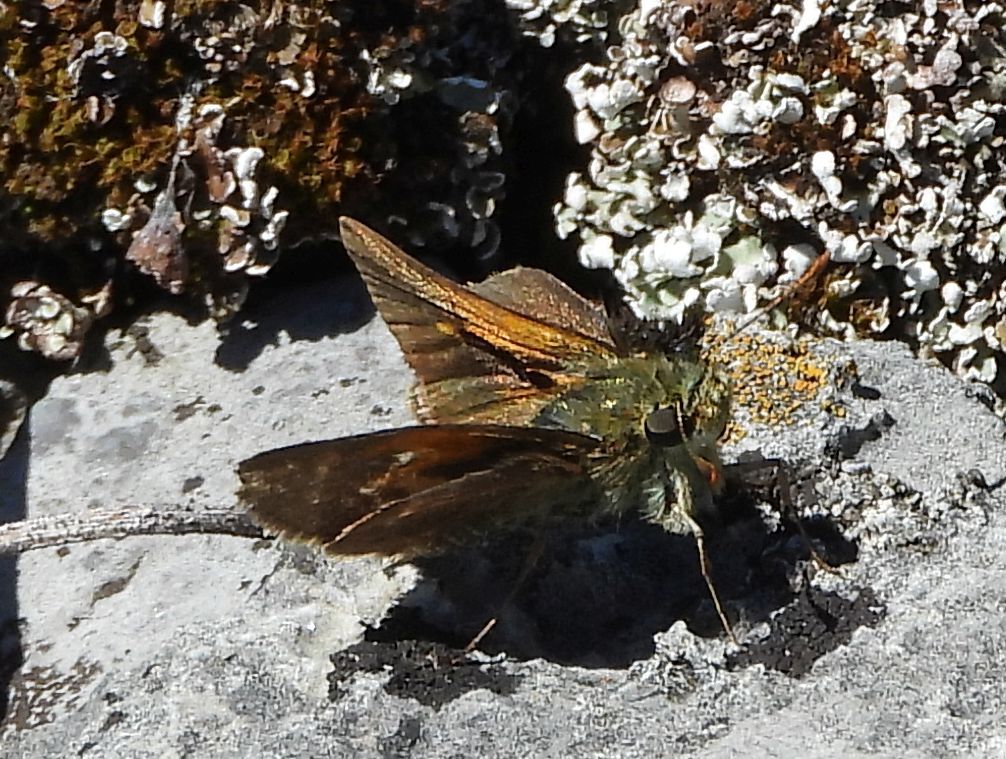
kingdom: Animalia
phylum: Arthropoda
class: Insecta
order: Lepidoptera
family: Hesperiidae
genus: Polites
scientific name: Polites themistocles
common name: Tawny-edged skipper
